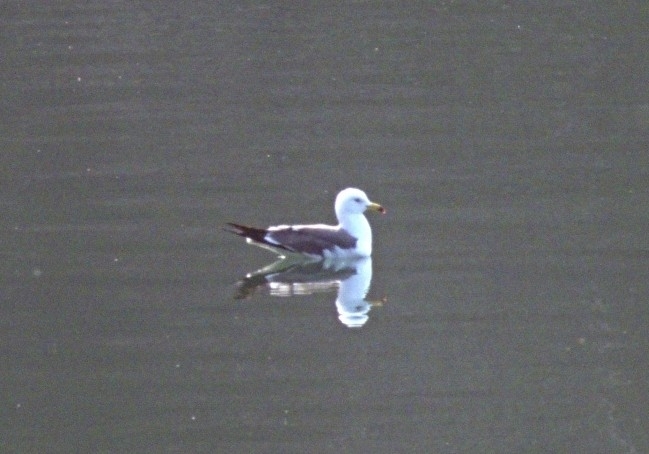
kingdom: Animalia
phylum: Chordata
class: Aves
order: Charadriiformes
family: Laridae
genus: Larus
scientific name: Larus crassirostris
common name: Black-tailed gull
